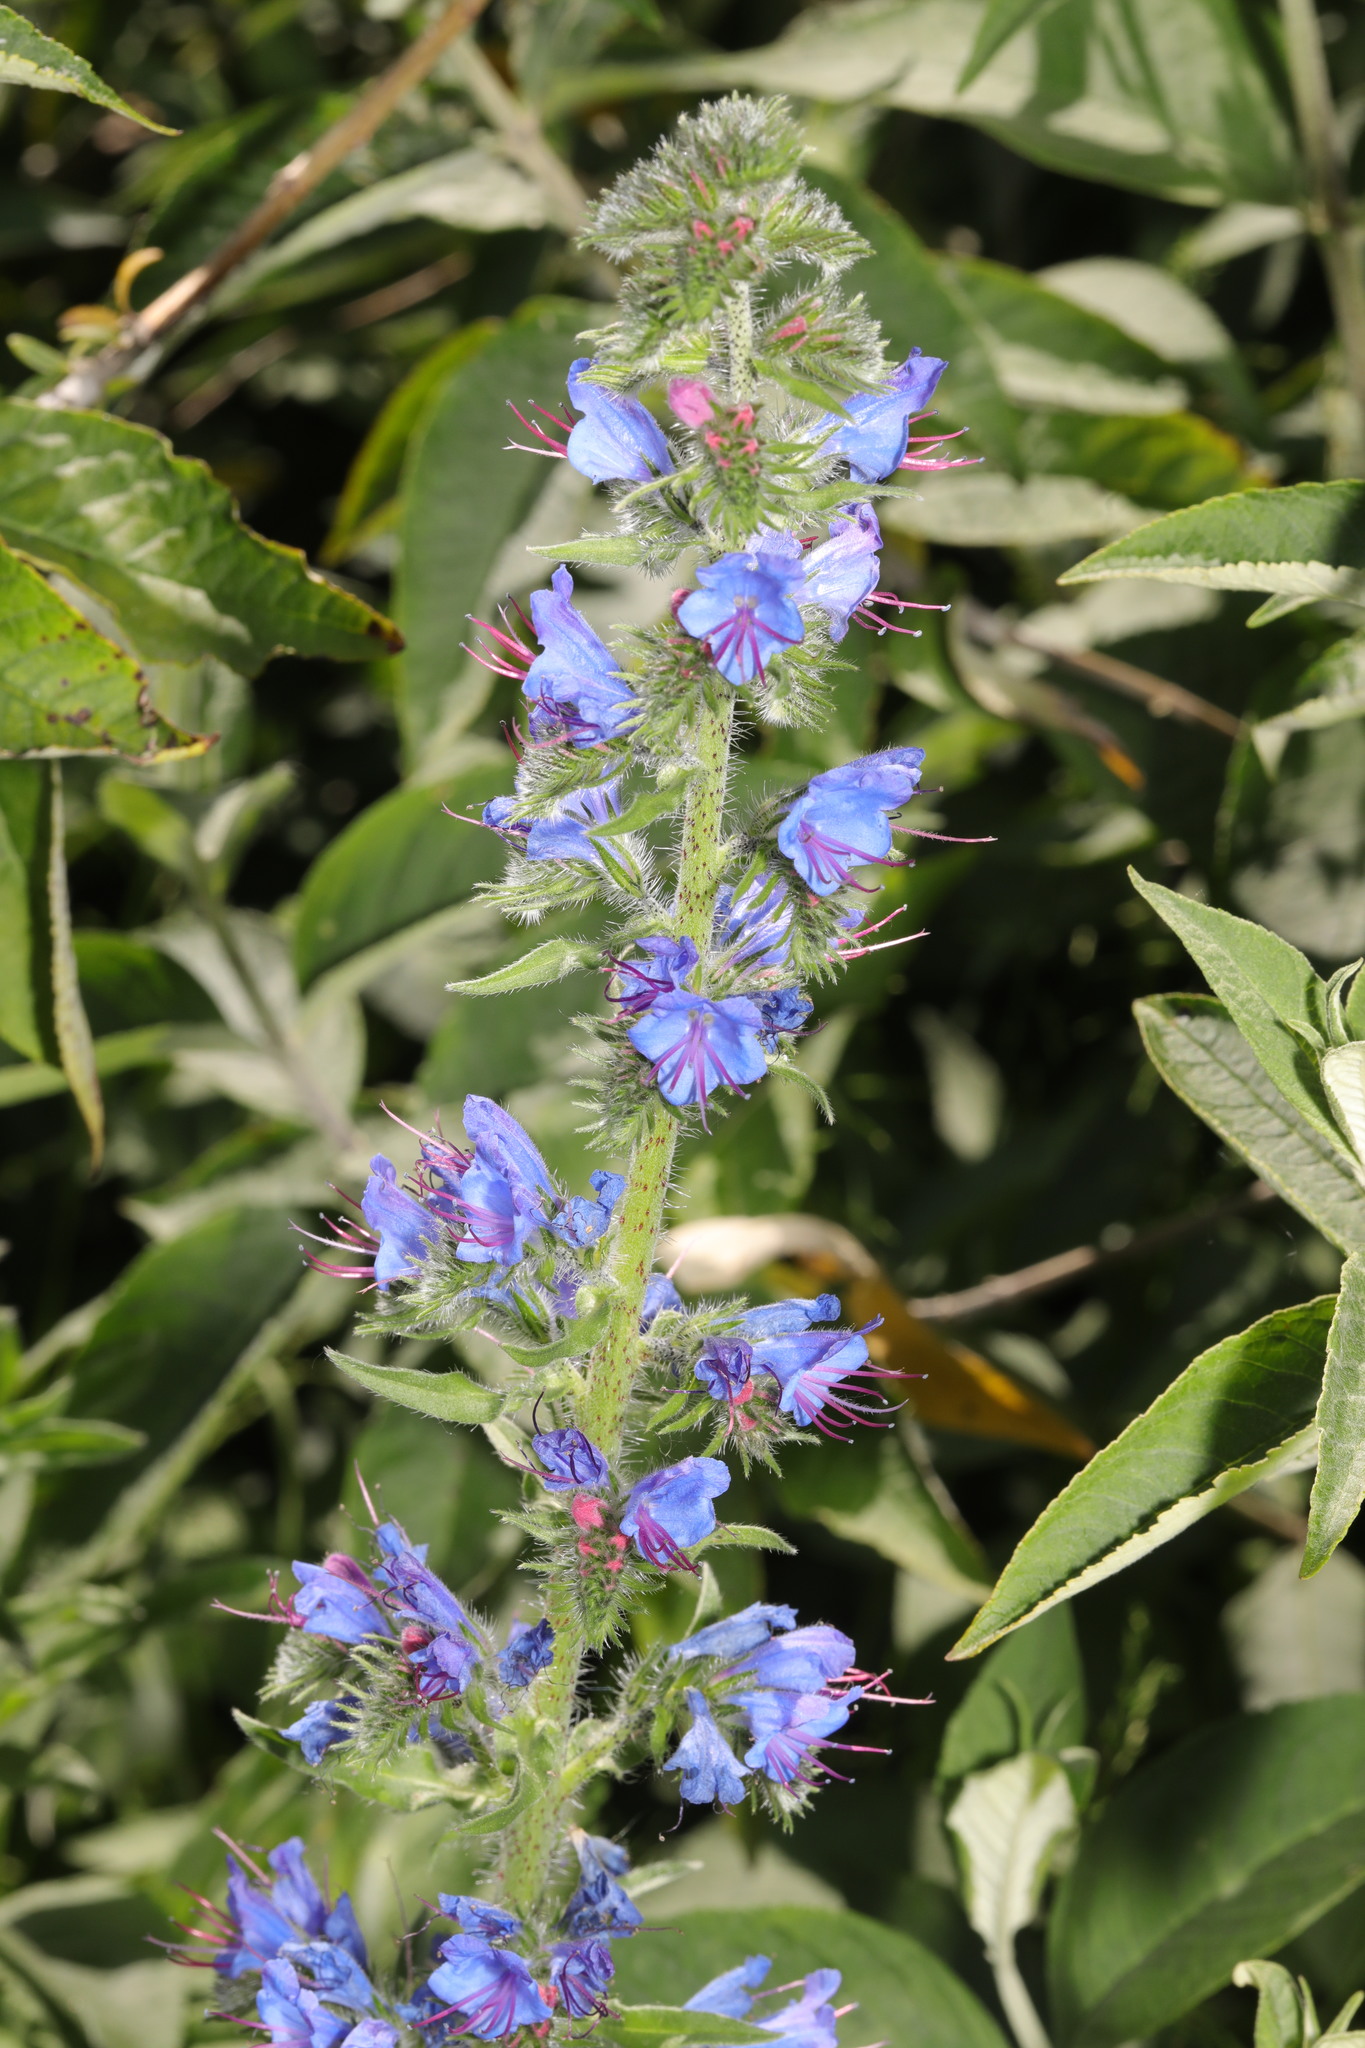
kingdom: Plantae
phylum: Tracheophyta
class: Magnoliopsida
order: Boraginales
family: Boraginaceae
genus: Echium
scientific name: Echium vulgare
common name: Common viper's bugloss
